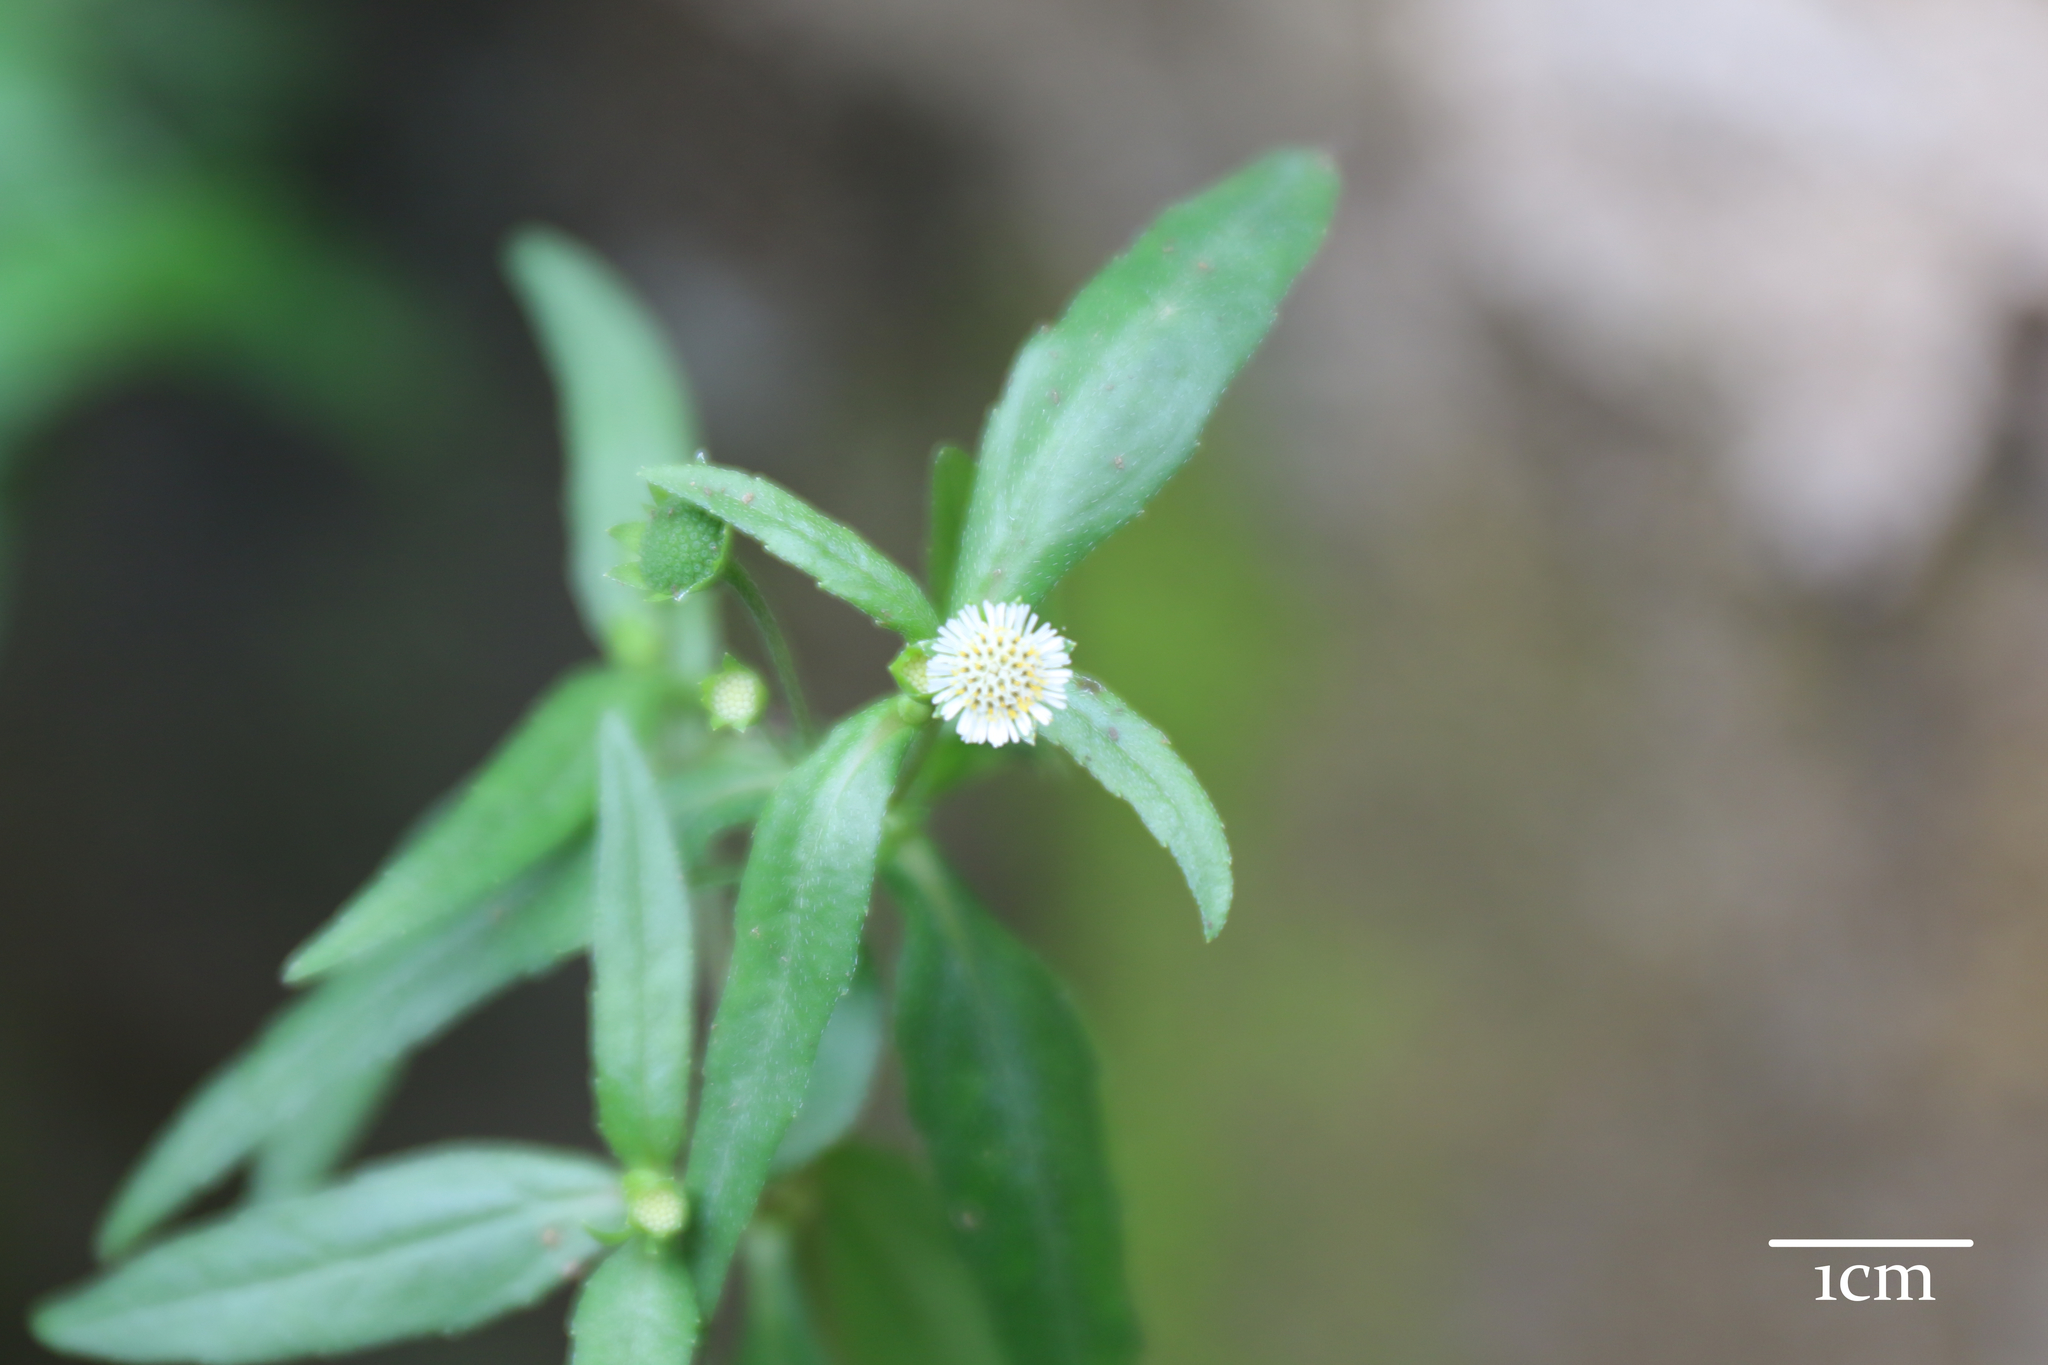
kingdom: Plantae
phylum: Tracheophyta
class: Magnoliopsida
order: Asterales
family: Asteraceae
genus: Eclipta
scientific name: Eclipta prostrata
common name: False daisy
